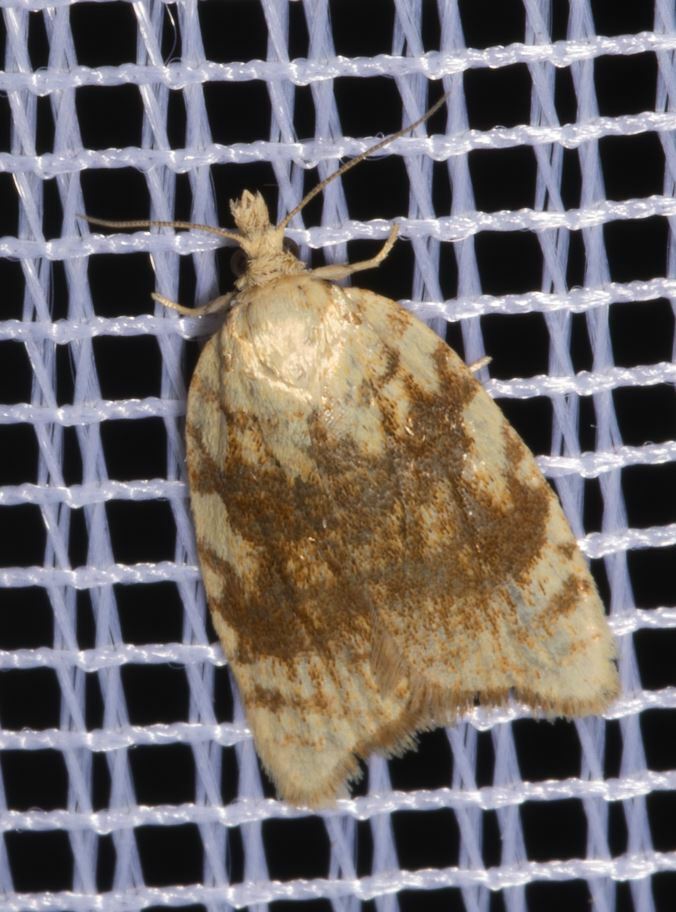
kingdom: Animalia
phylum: Arthropoda
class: Insecta
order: Lepidoptera
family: Tortricidae
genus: Aleimma
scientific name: Aleimma loeflingiana
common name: Yellow oak button
